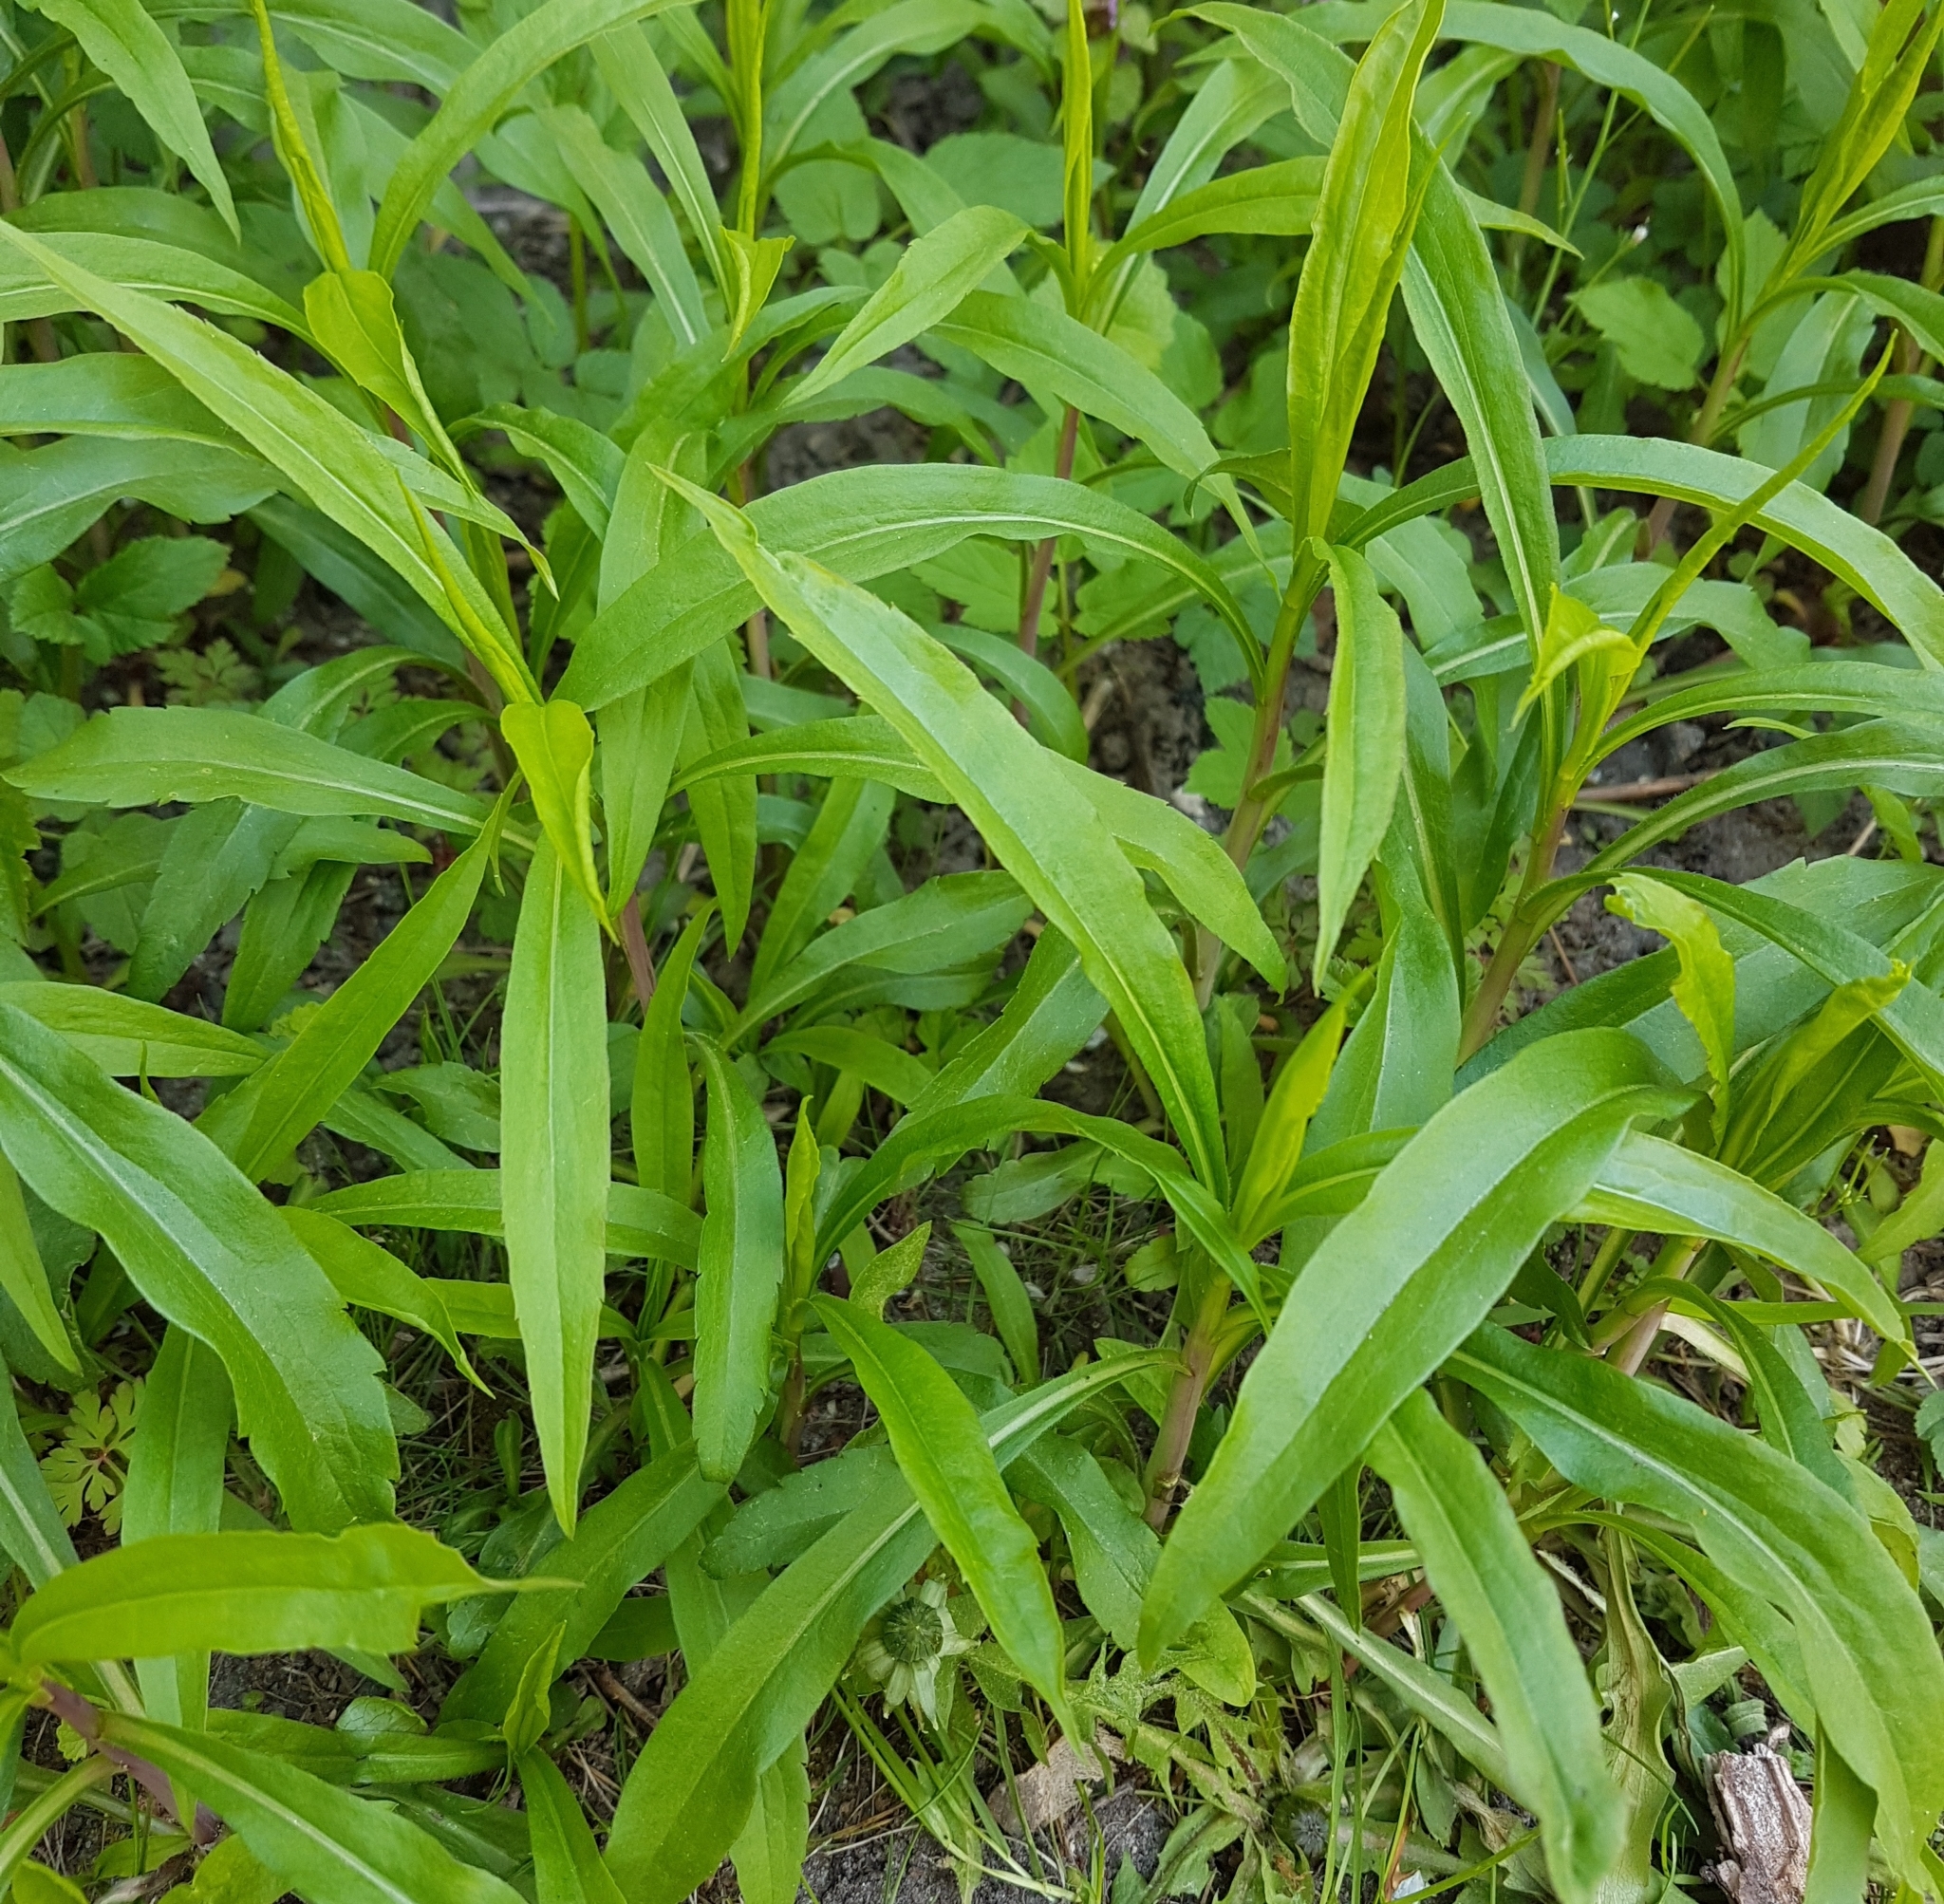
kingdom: Plantae
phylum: Tracheophyta
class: Magnoliopsida
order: Asterales
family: Asteraceae
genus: Solidago
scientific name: Solidago gigantea
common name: Giant goldenrod
